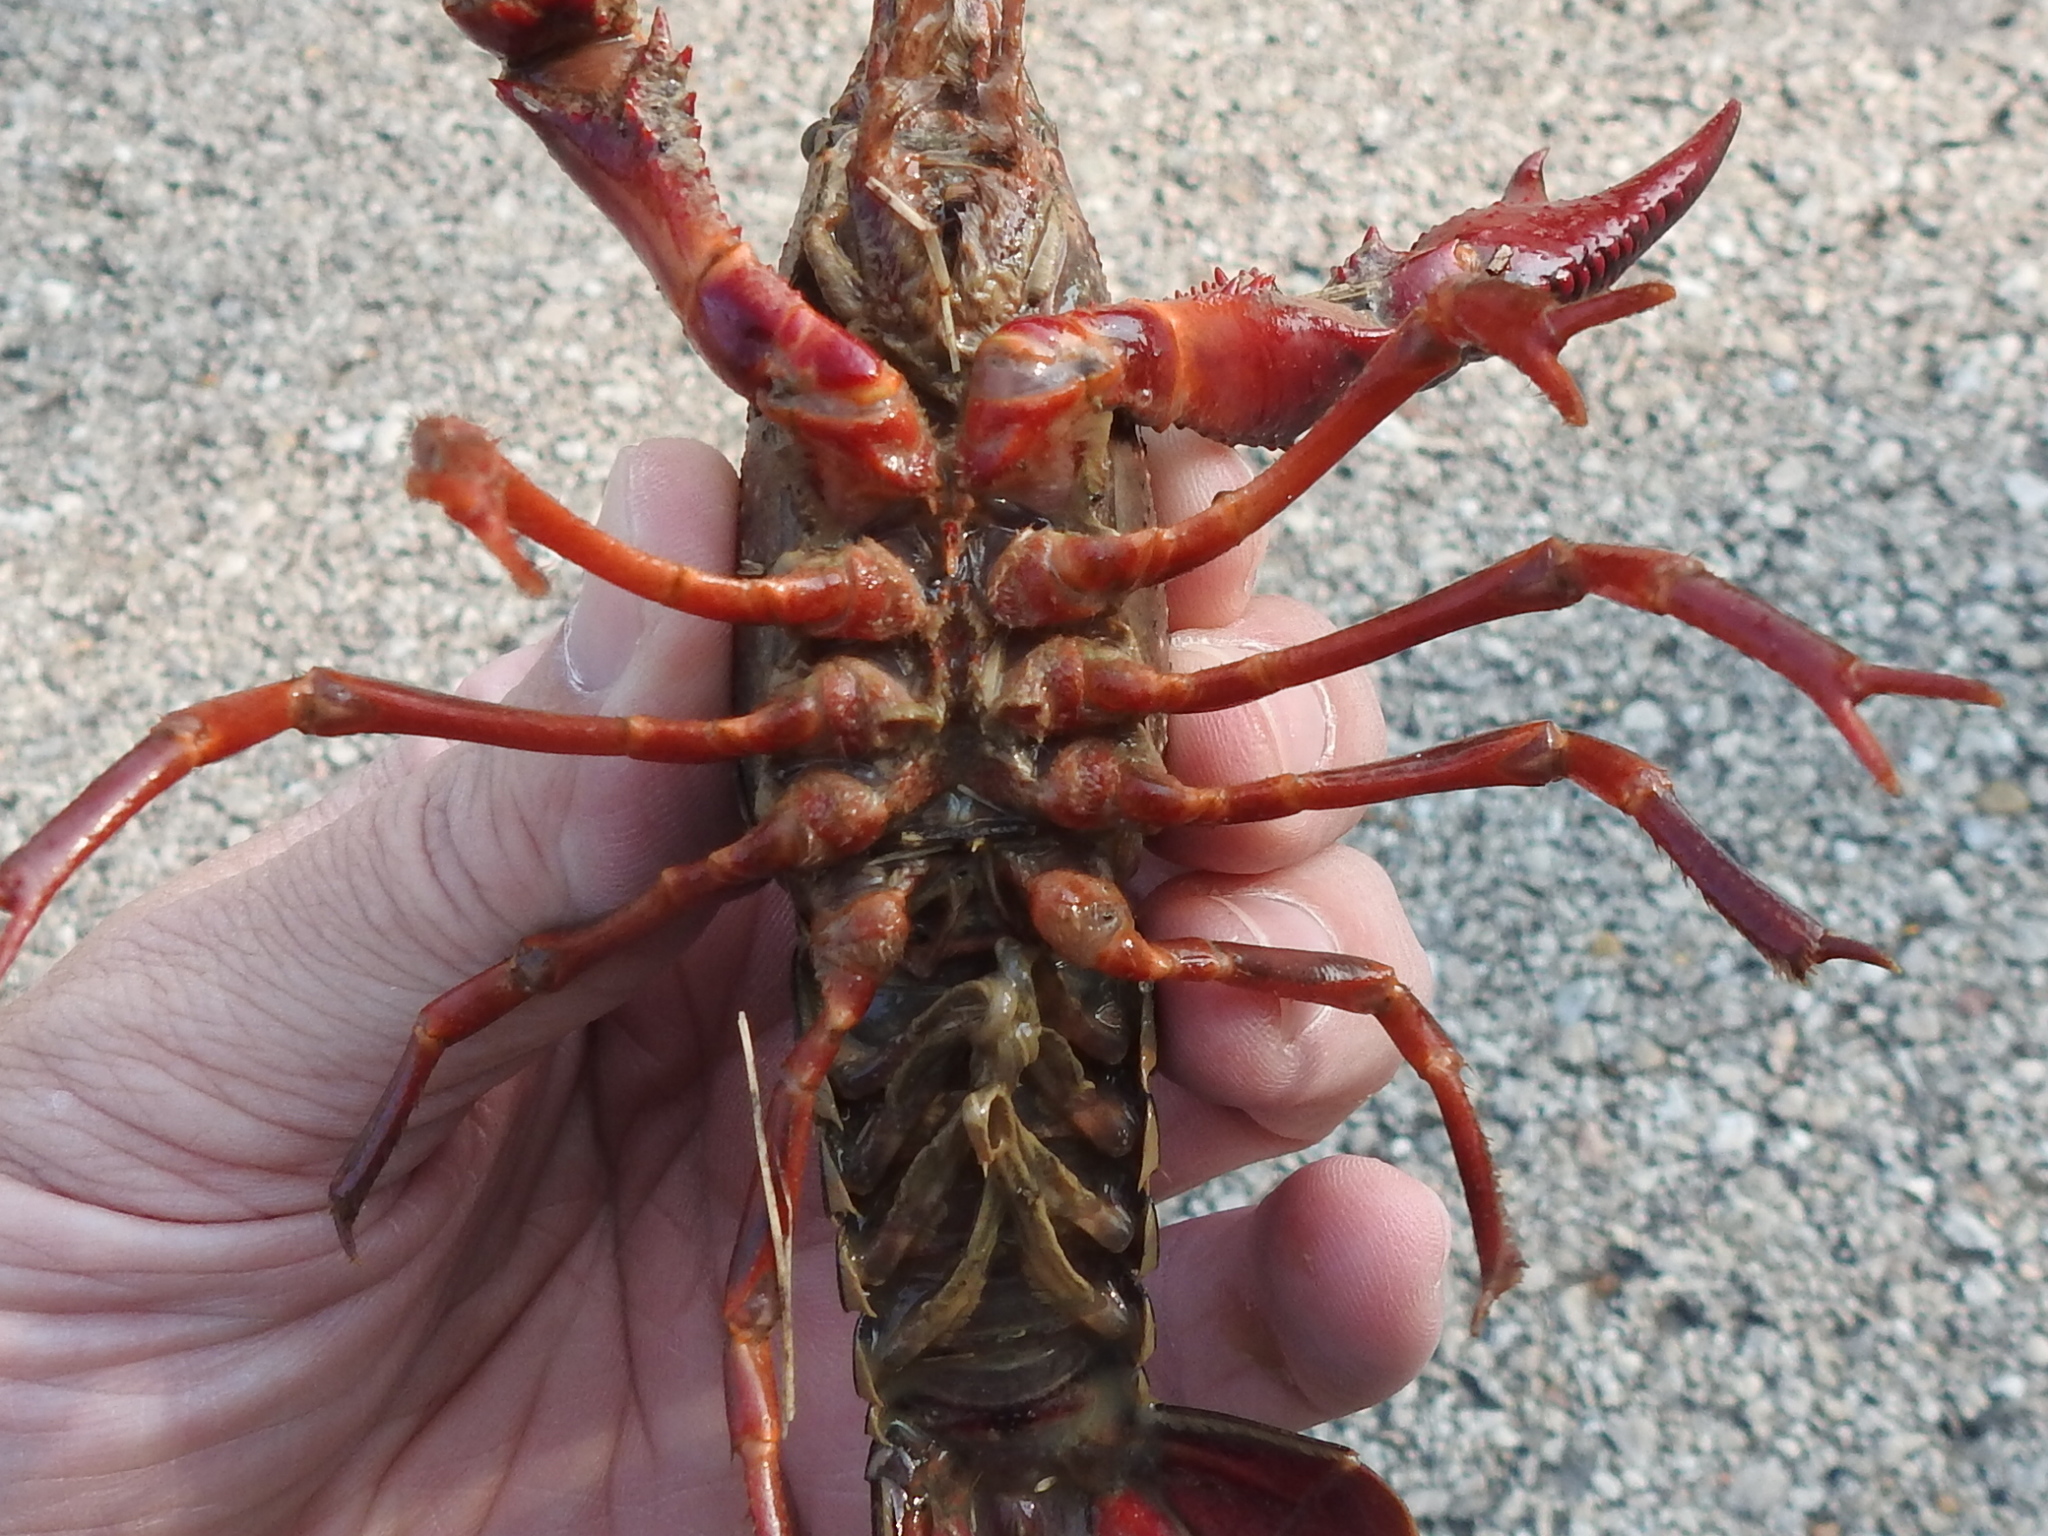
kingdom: Animalia
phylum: Arthropoda
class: Malacostraca
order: Decapoda
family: Cambaridae
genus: Procambarus
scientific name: Procambarus clarkii
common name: Red swamp crayfish
